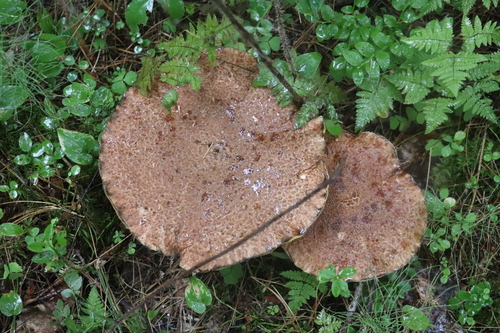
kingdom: Fungi
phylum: Basidiomycota
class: Agaricomycetes
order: Boletales
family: Suillaceae
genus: Suillus
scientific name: Suillus spraguei
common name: Painted suillus
